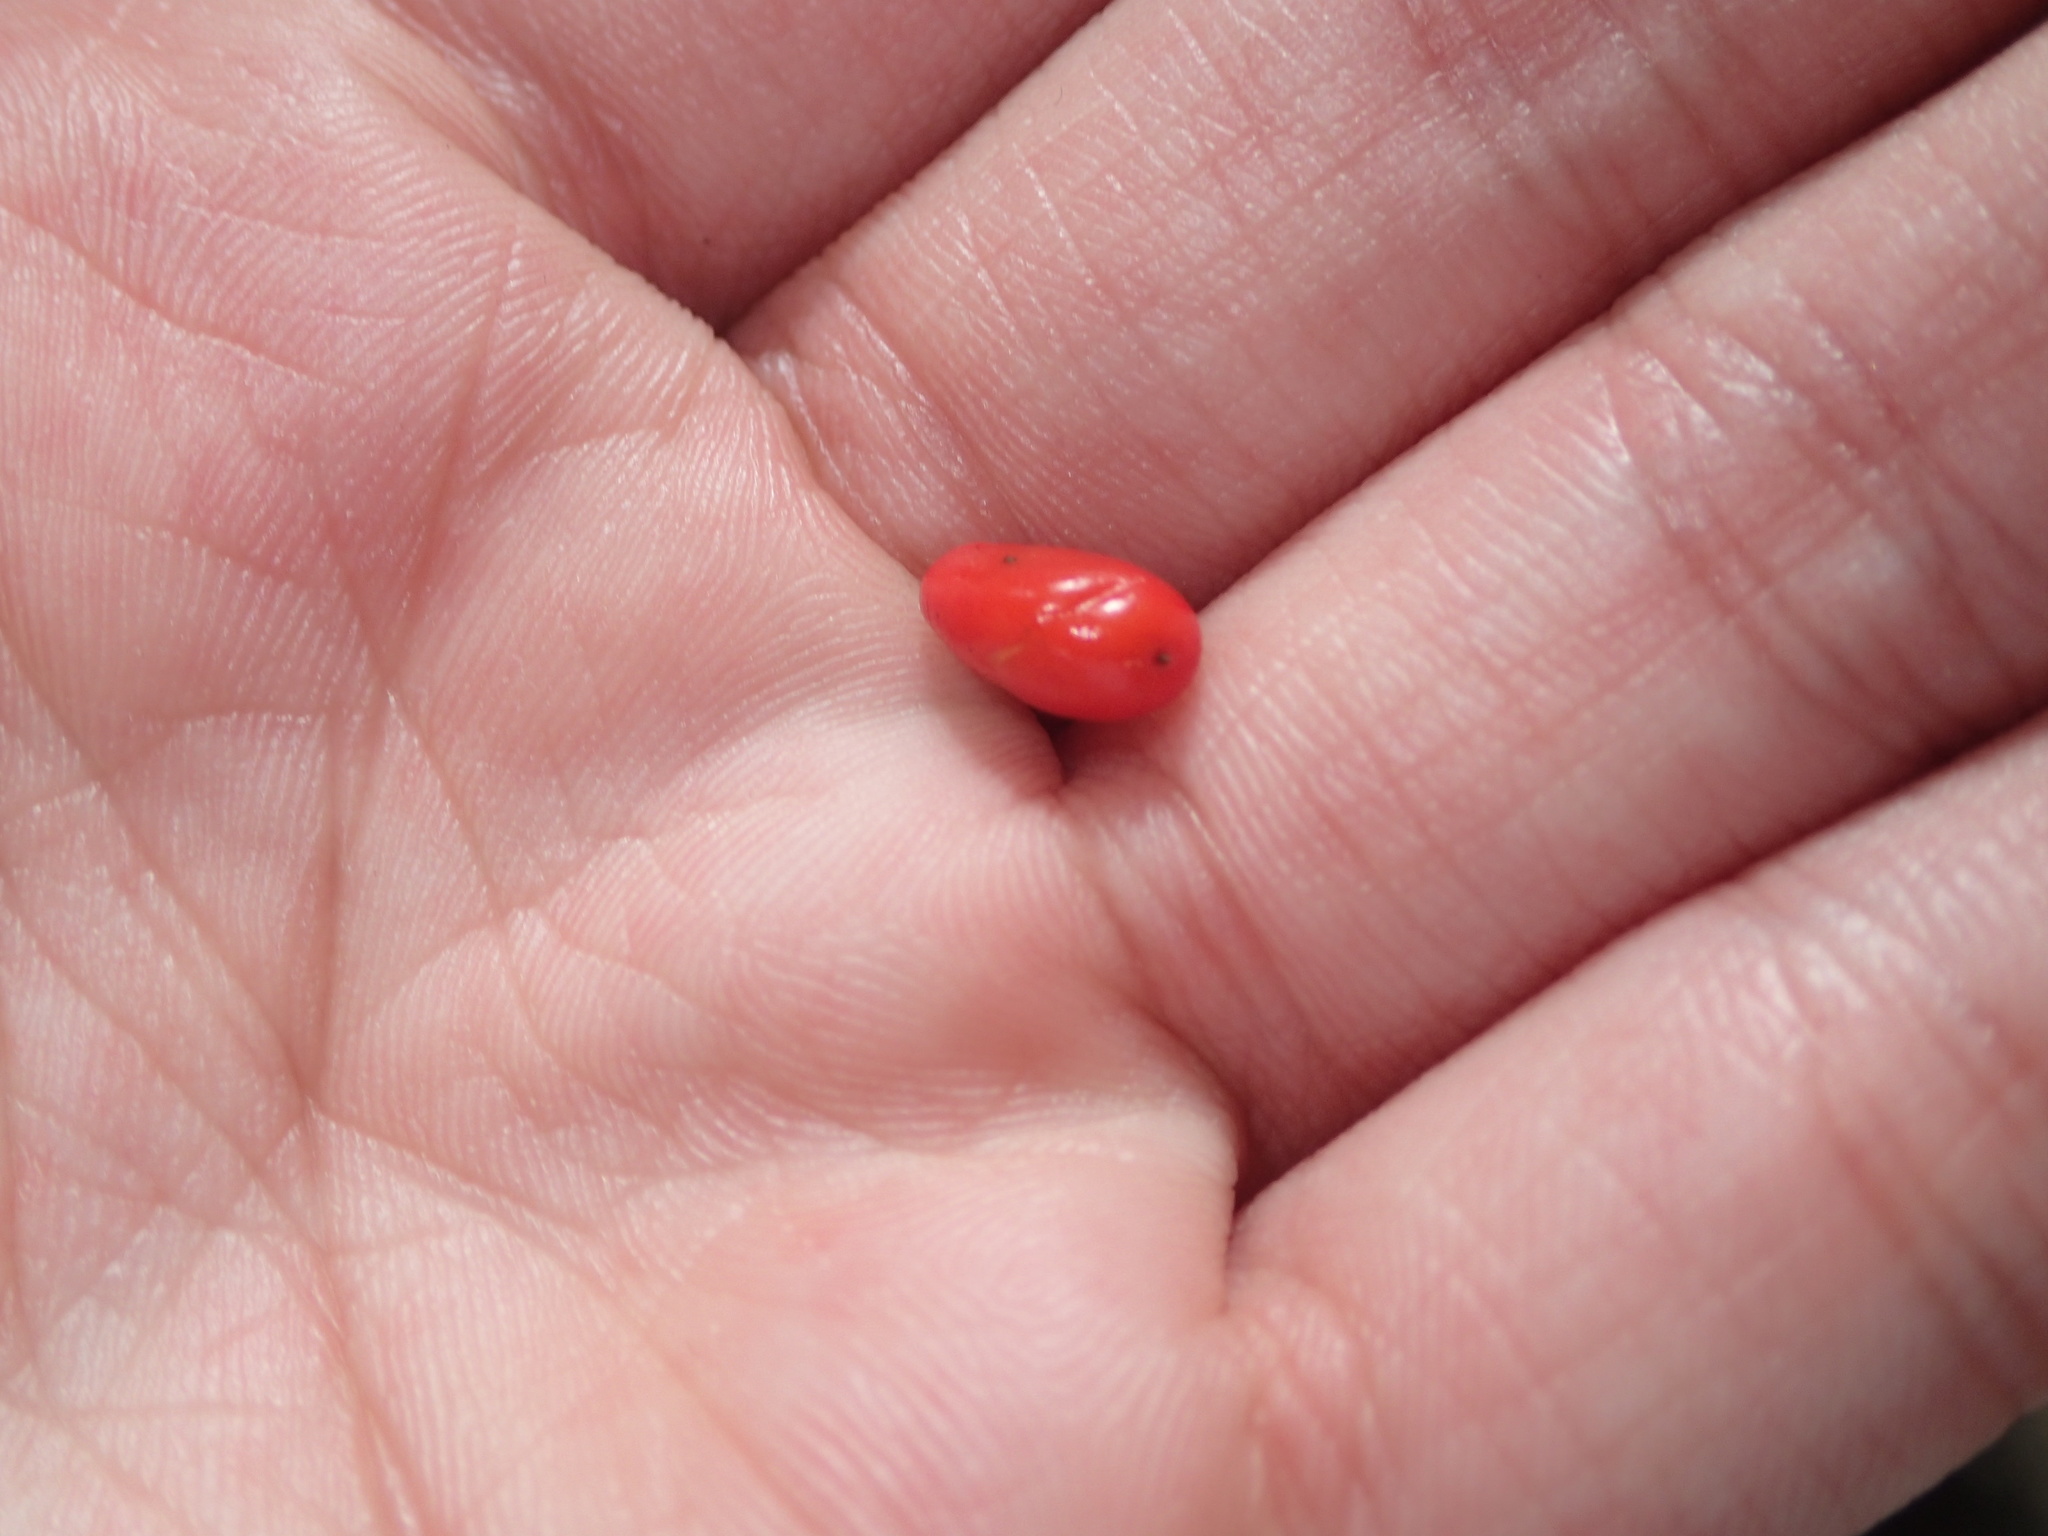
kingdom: Plantae
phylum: Tracheophyta
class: Magnoliopsida
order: Laurales
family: Lauraceae
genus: Lindera
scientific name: Lindera benzoin
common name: Spicebush
